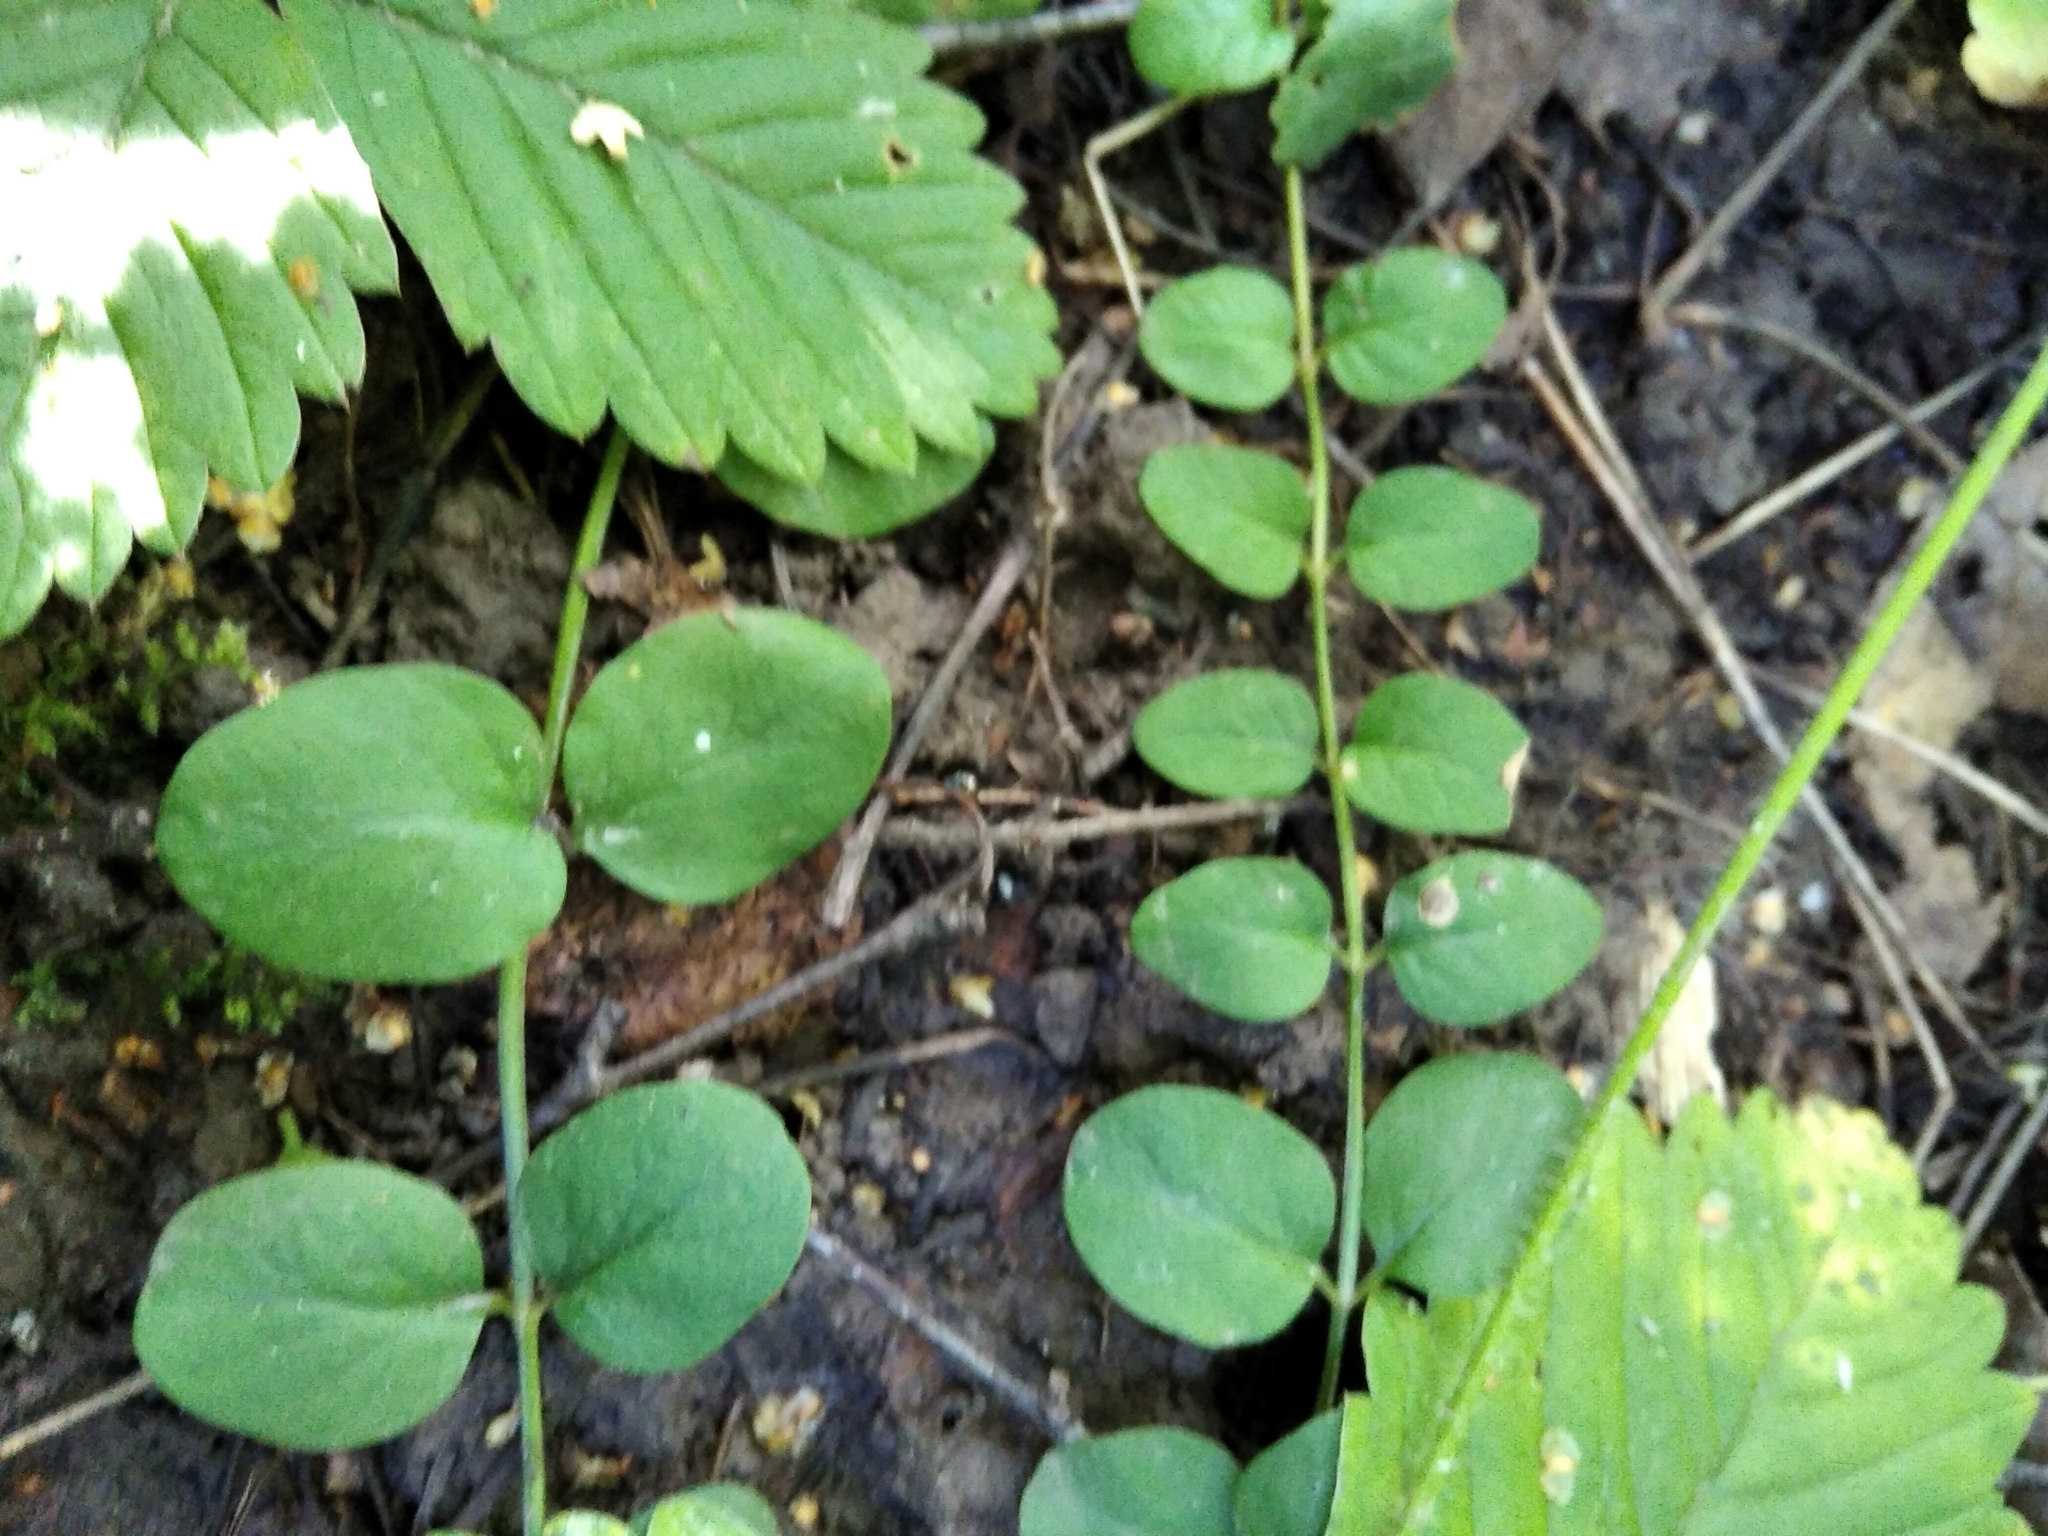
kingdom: Plantae
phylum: Tracheophyta
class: Magnoliopsida
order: Ericales
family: Primulaceae
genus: Lysimachia
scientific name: Lysimachia nummularia
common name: Moneywort
